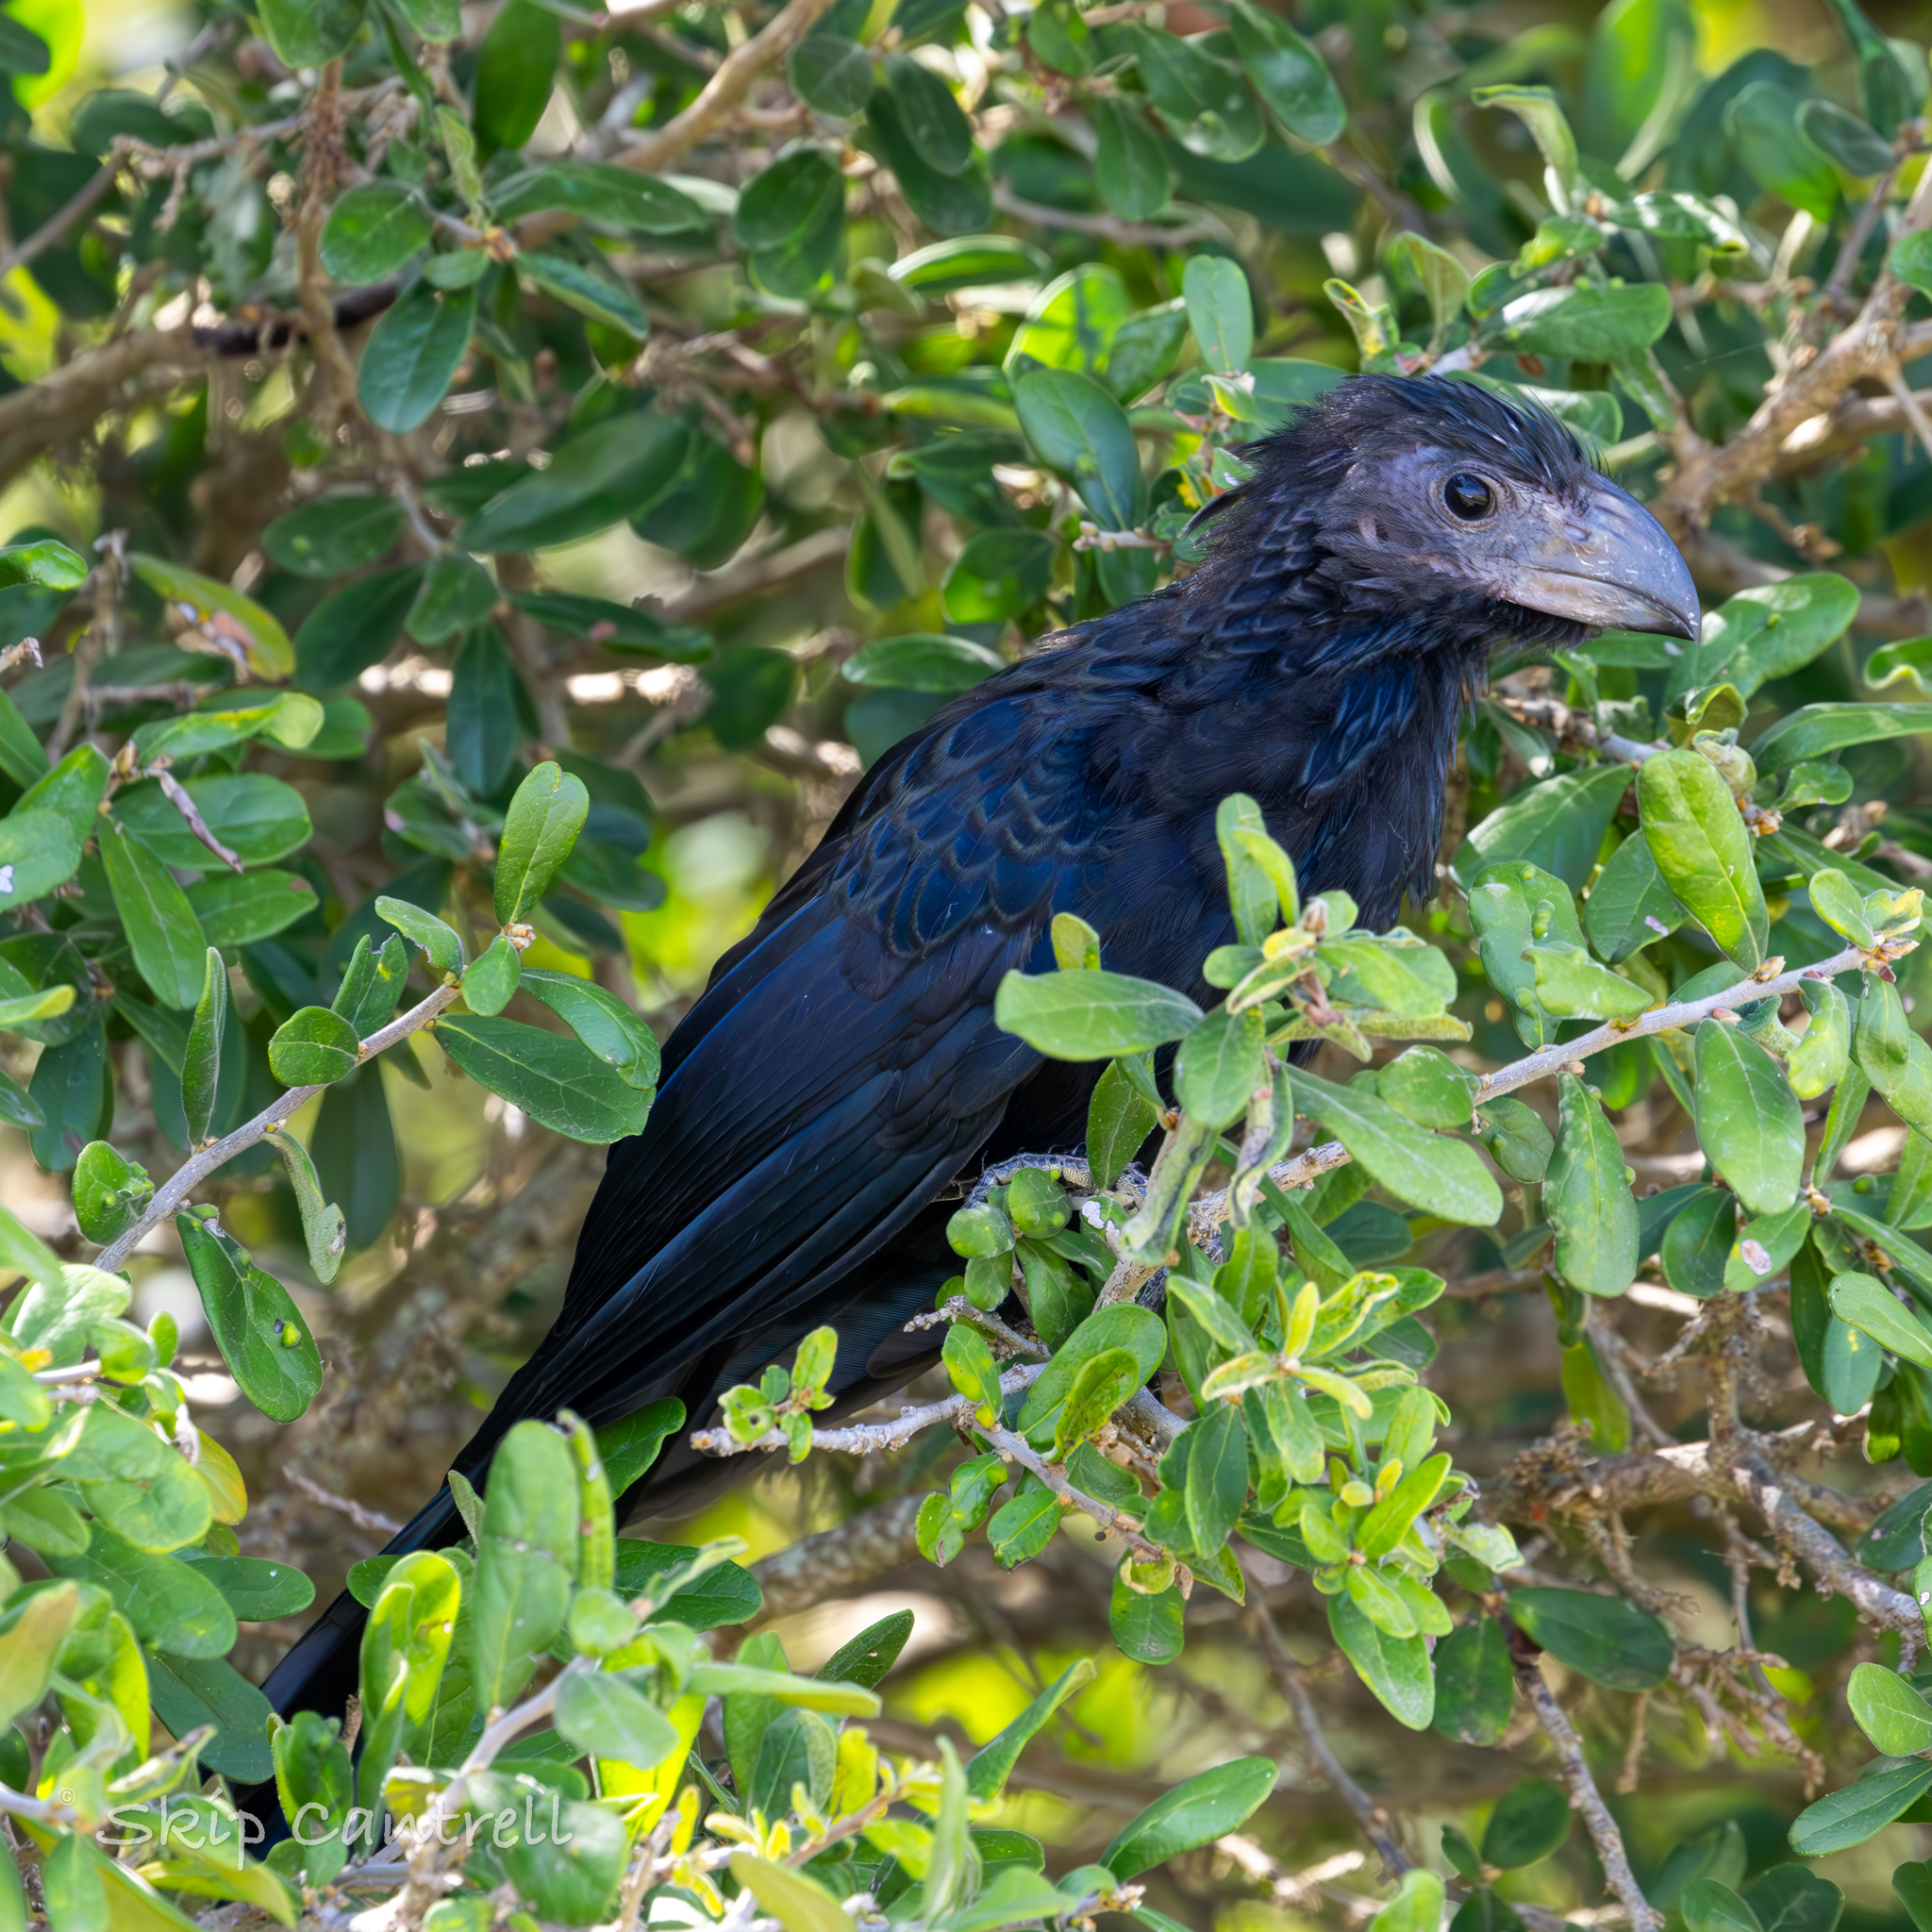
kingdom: Animalia
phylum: Chordata
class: Aves
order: Cuculiformes
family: Cuculidae
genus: Crotophaga
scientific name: Crotophaga sulcirostris
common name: Groove-billed ani
